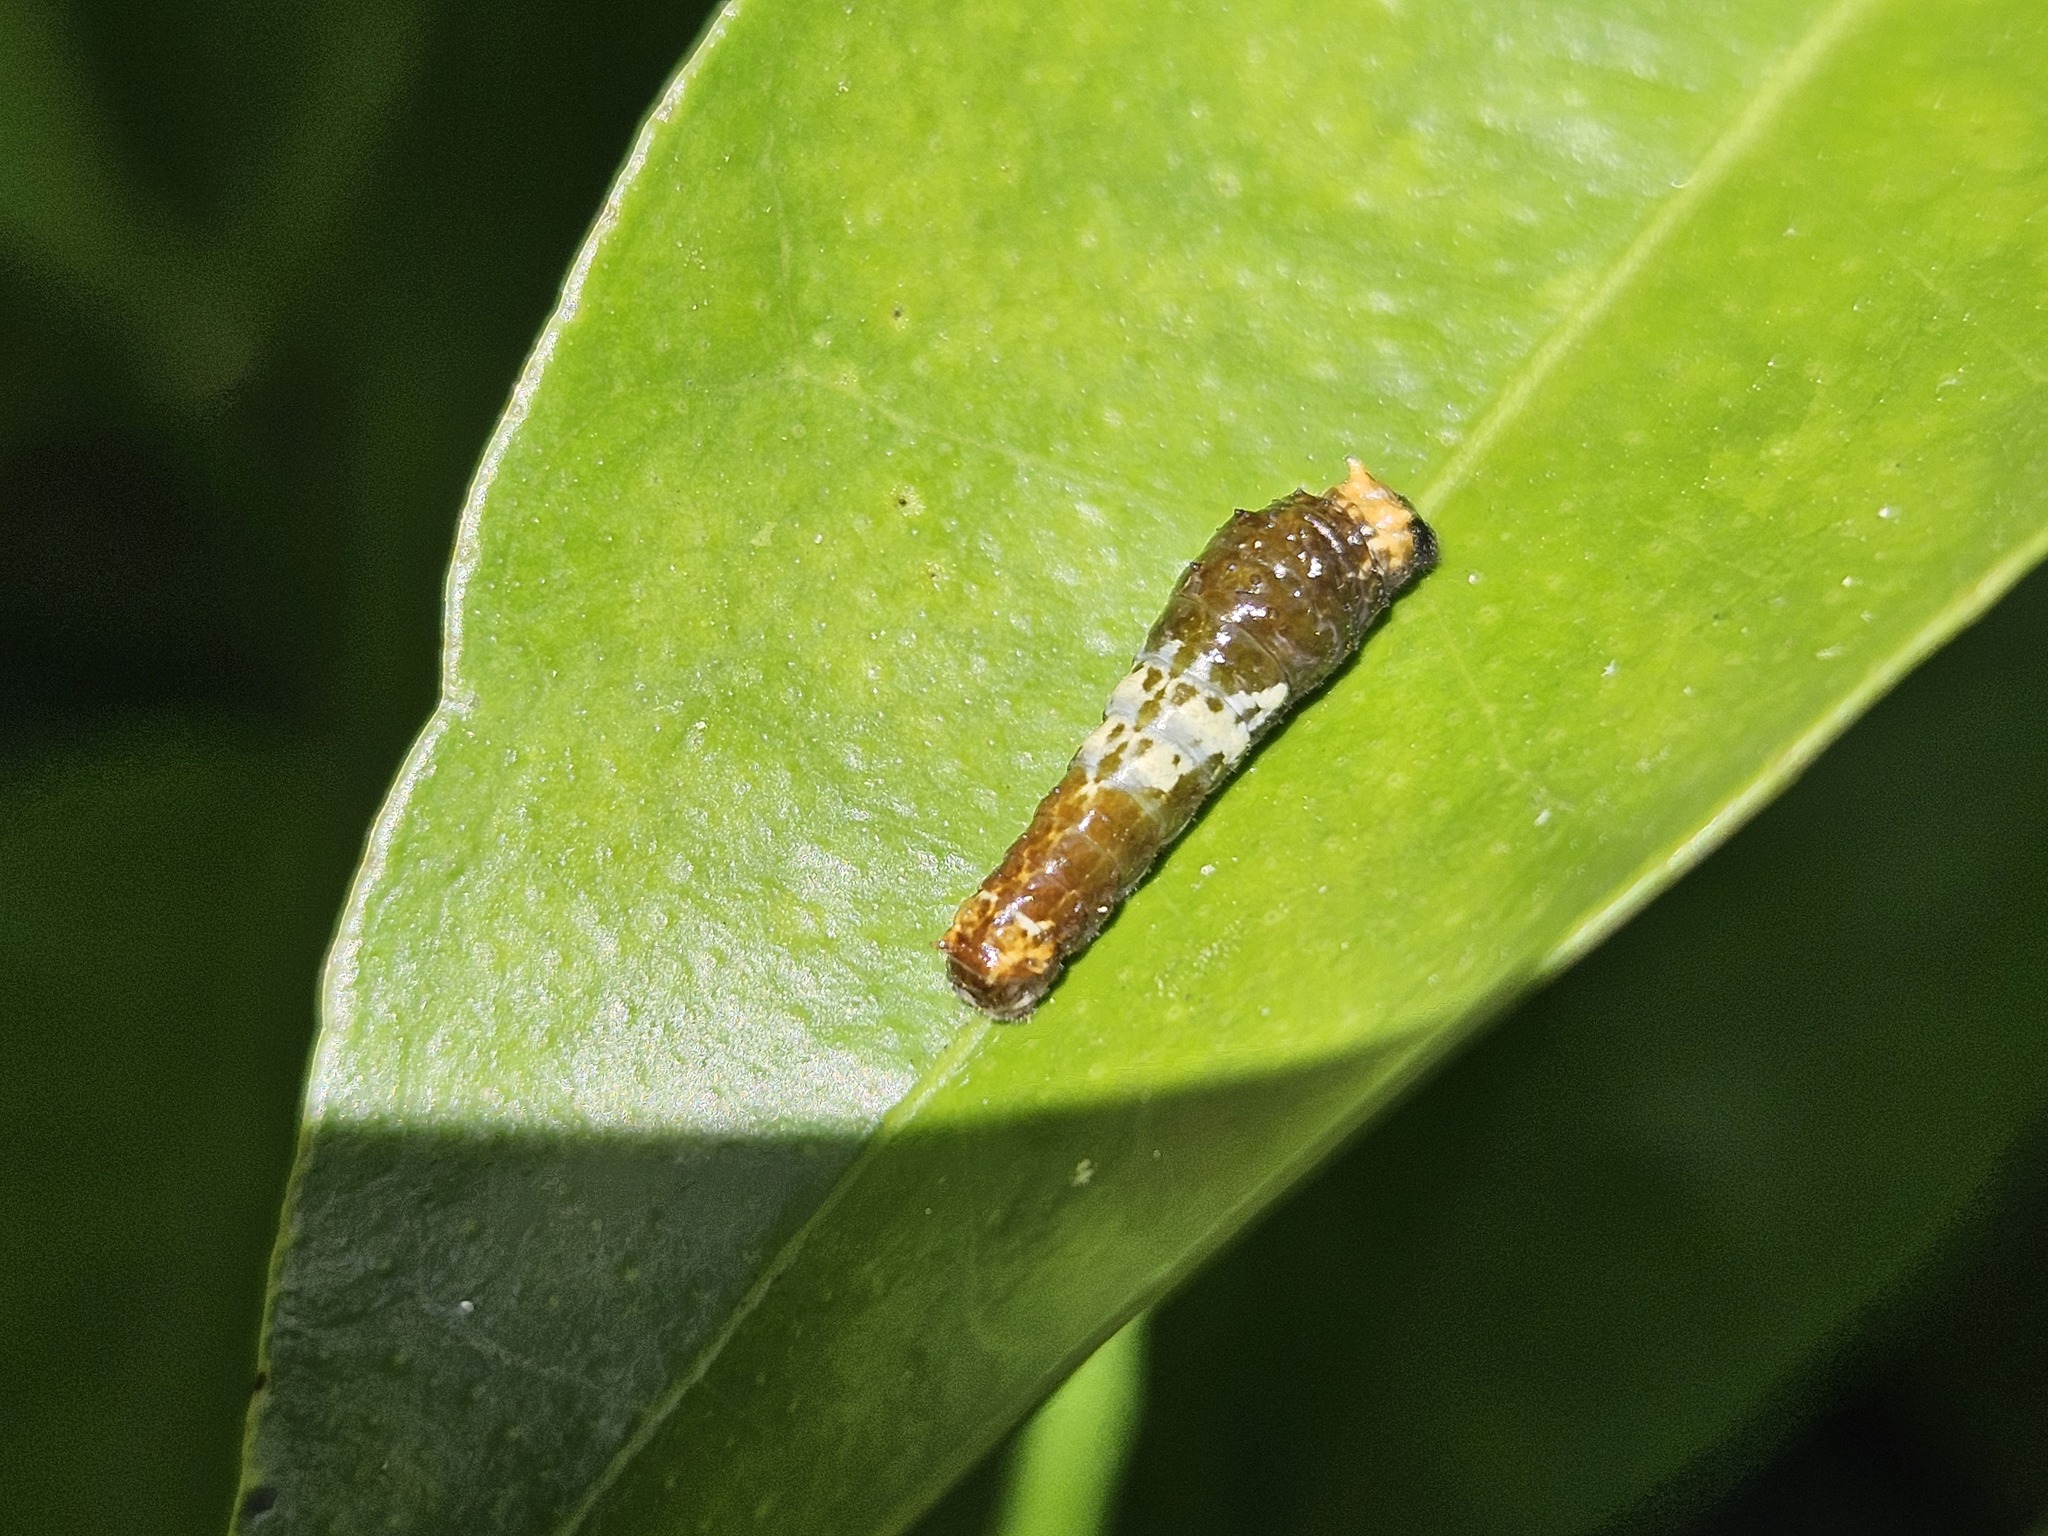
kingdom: Animalia
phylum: Arthropoda
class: Insecta
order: Lepidoptera
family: Papilionidae
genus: Papilio
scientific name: Papilio amynthor
